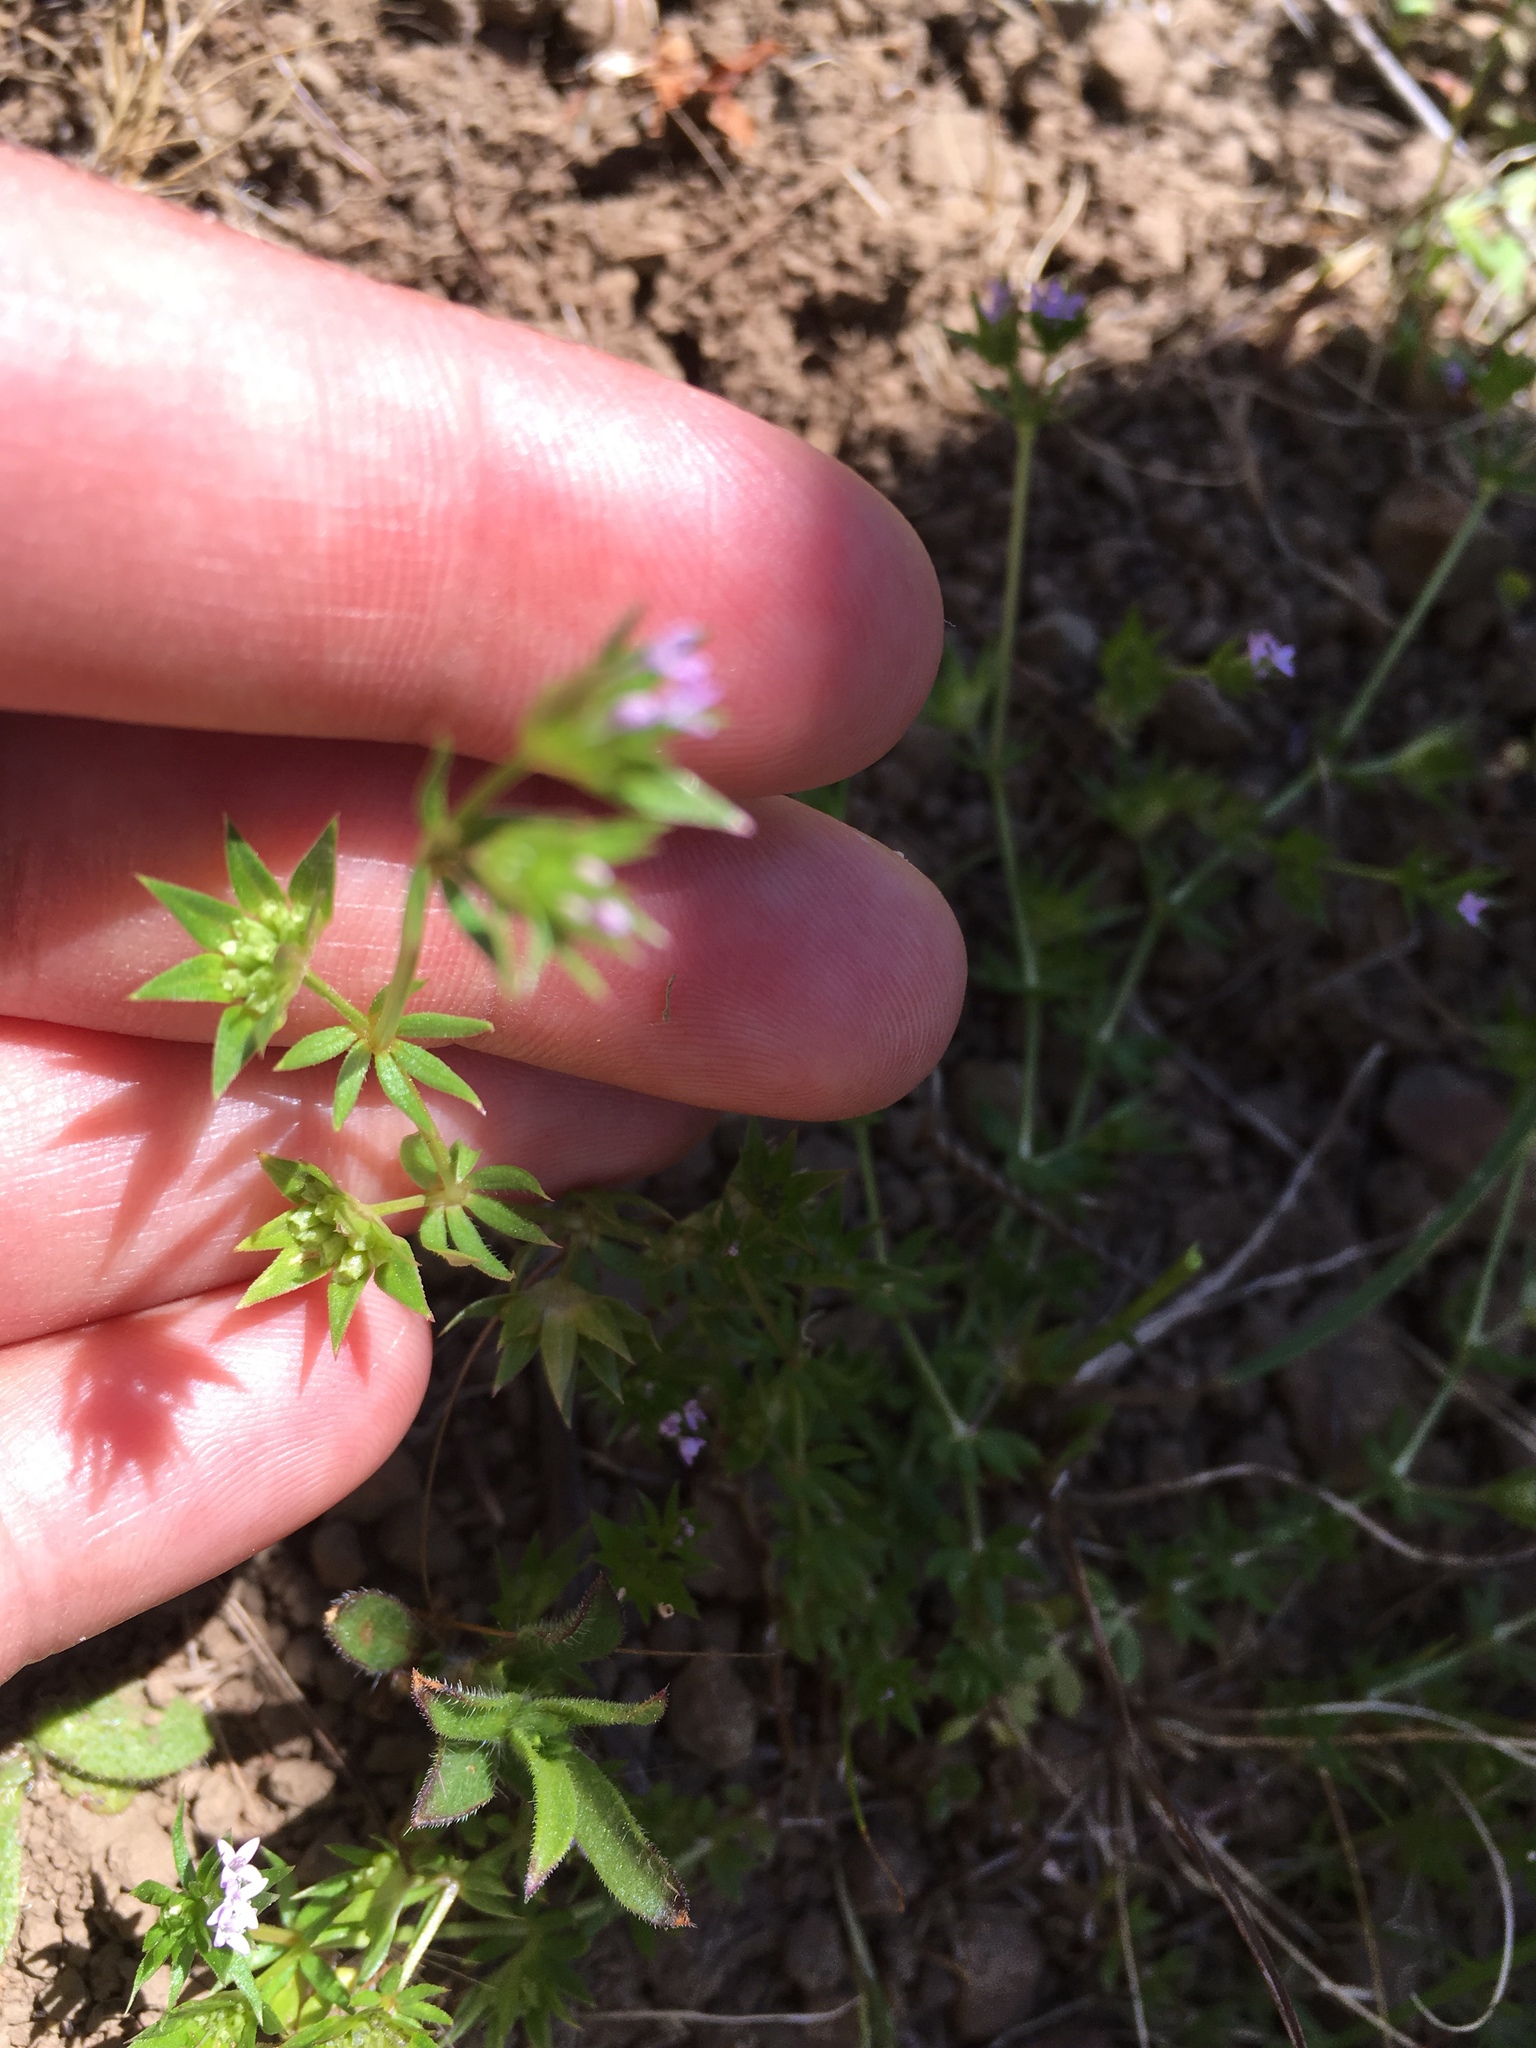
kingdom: Plantae
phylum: Tracheophyta
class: Magnoliopsida
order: Gentianales
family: Rubiaceae
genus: Sherardia
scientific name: Sherardia arvensis
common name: Field madder
